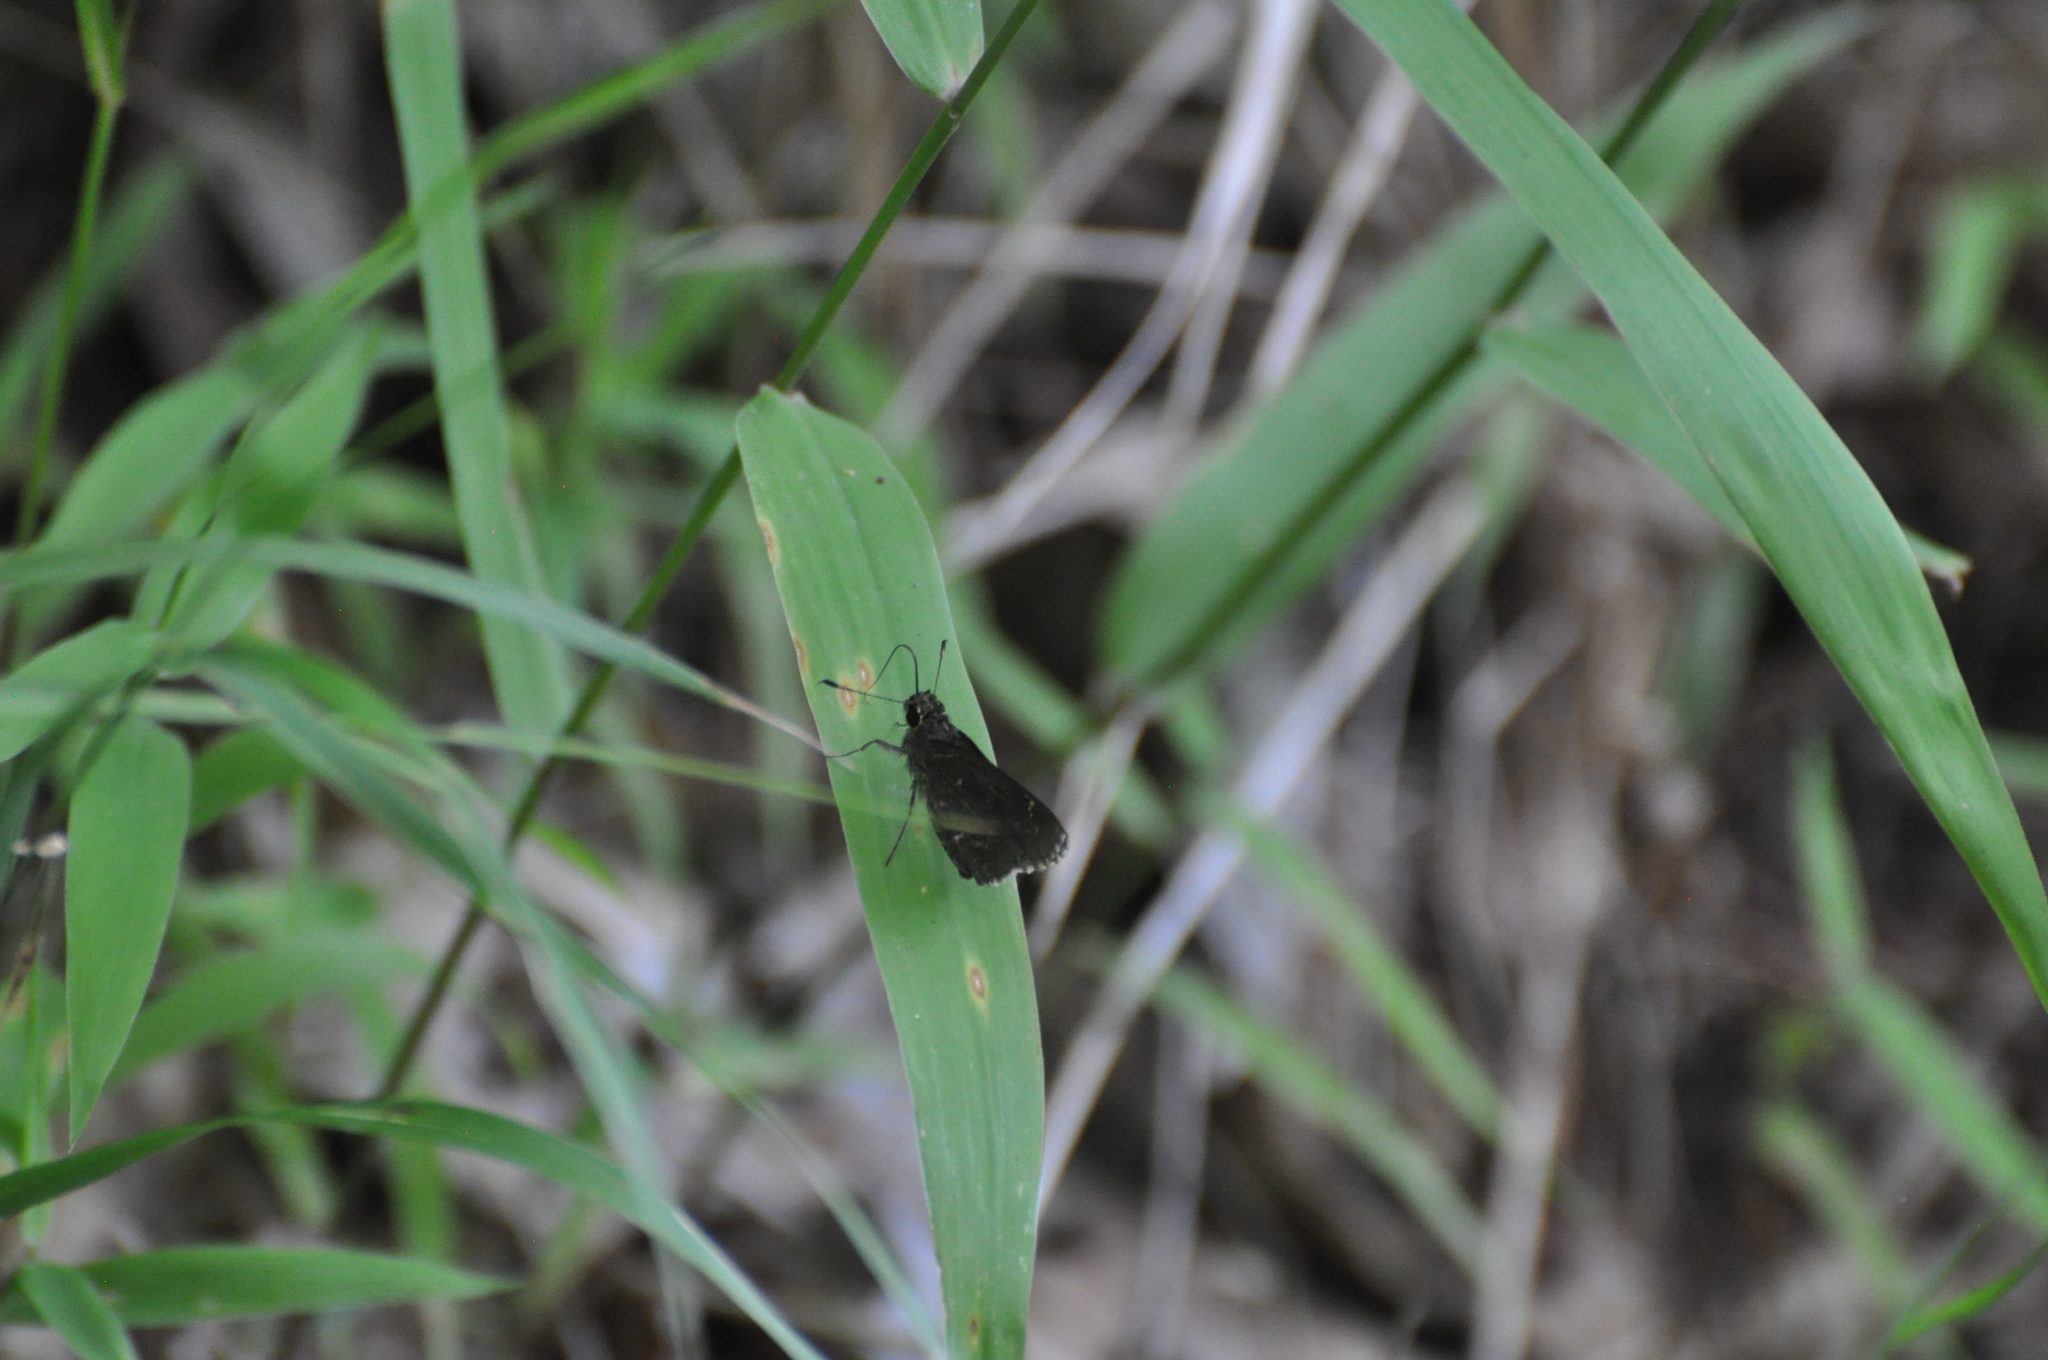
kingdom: Animalia
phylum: Arthropoda
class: Insecta
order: Lepidoptera
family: Hesperiidae
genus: Mastor
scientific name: Mastor celia
